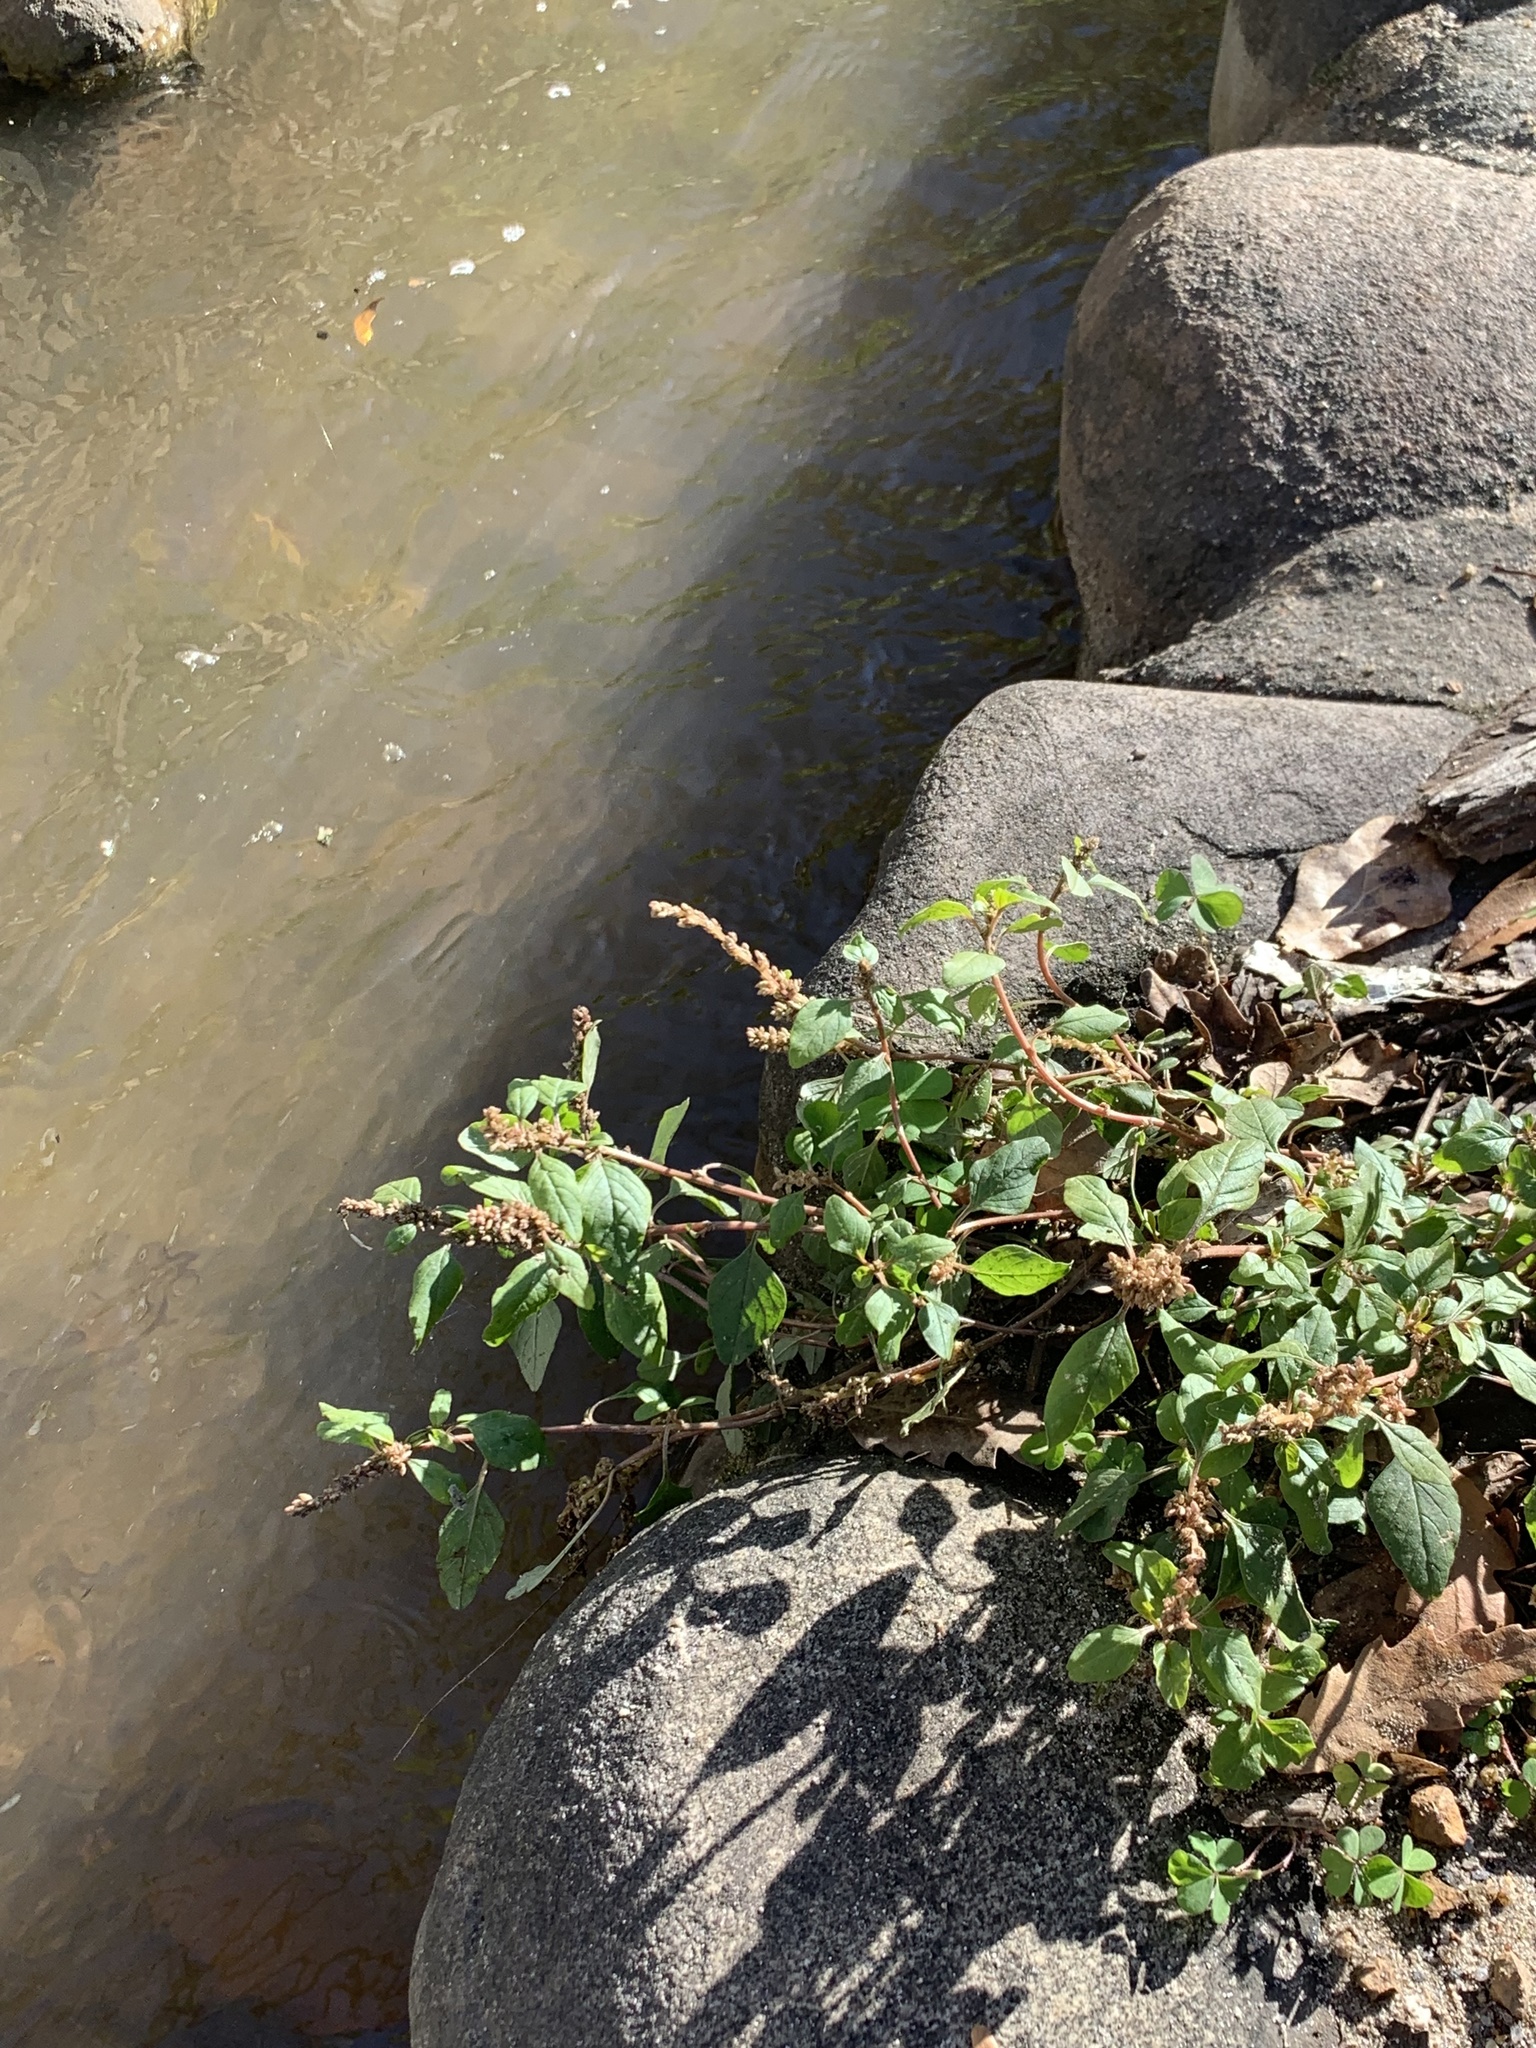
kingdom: Plantae
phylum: Tracheophyta
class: Magnoliopsida
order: Caryophyllales
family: Amaranthaceae
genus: Amaranthus
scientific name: Amaranthus deflexus
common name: Perennial pigweed
